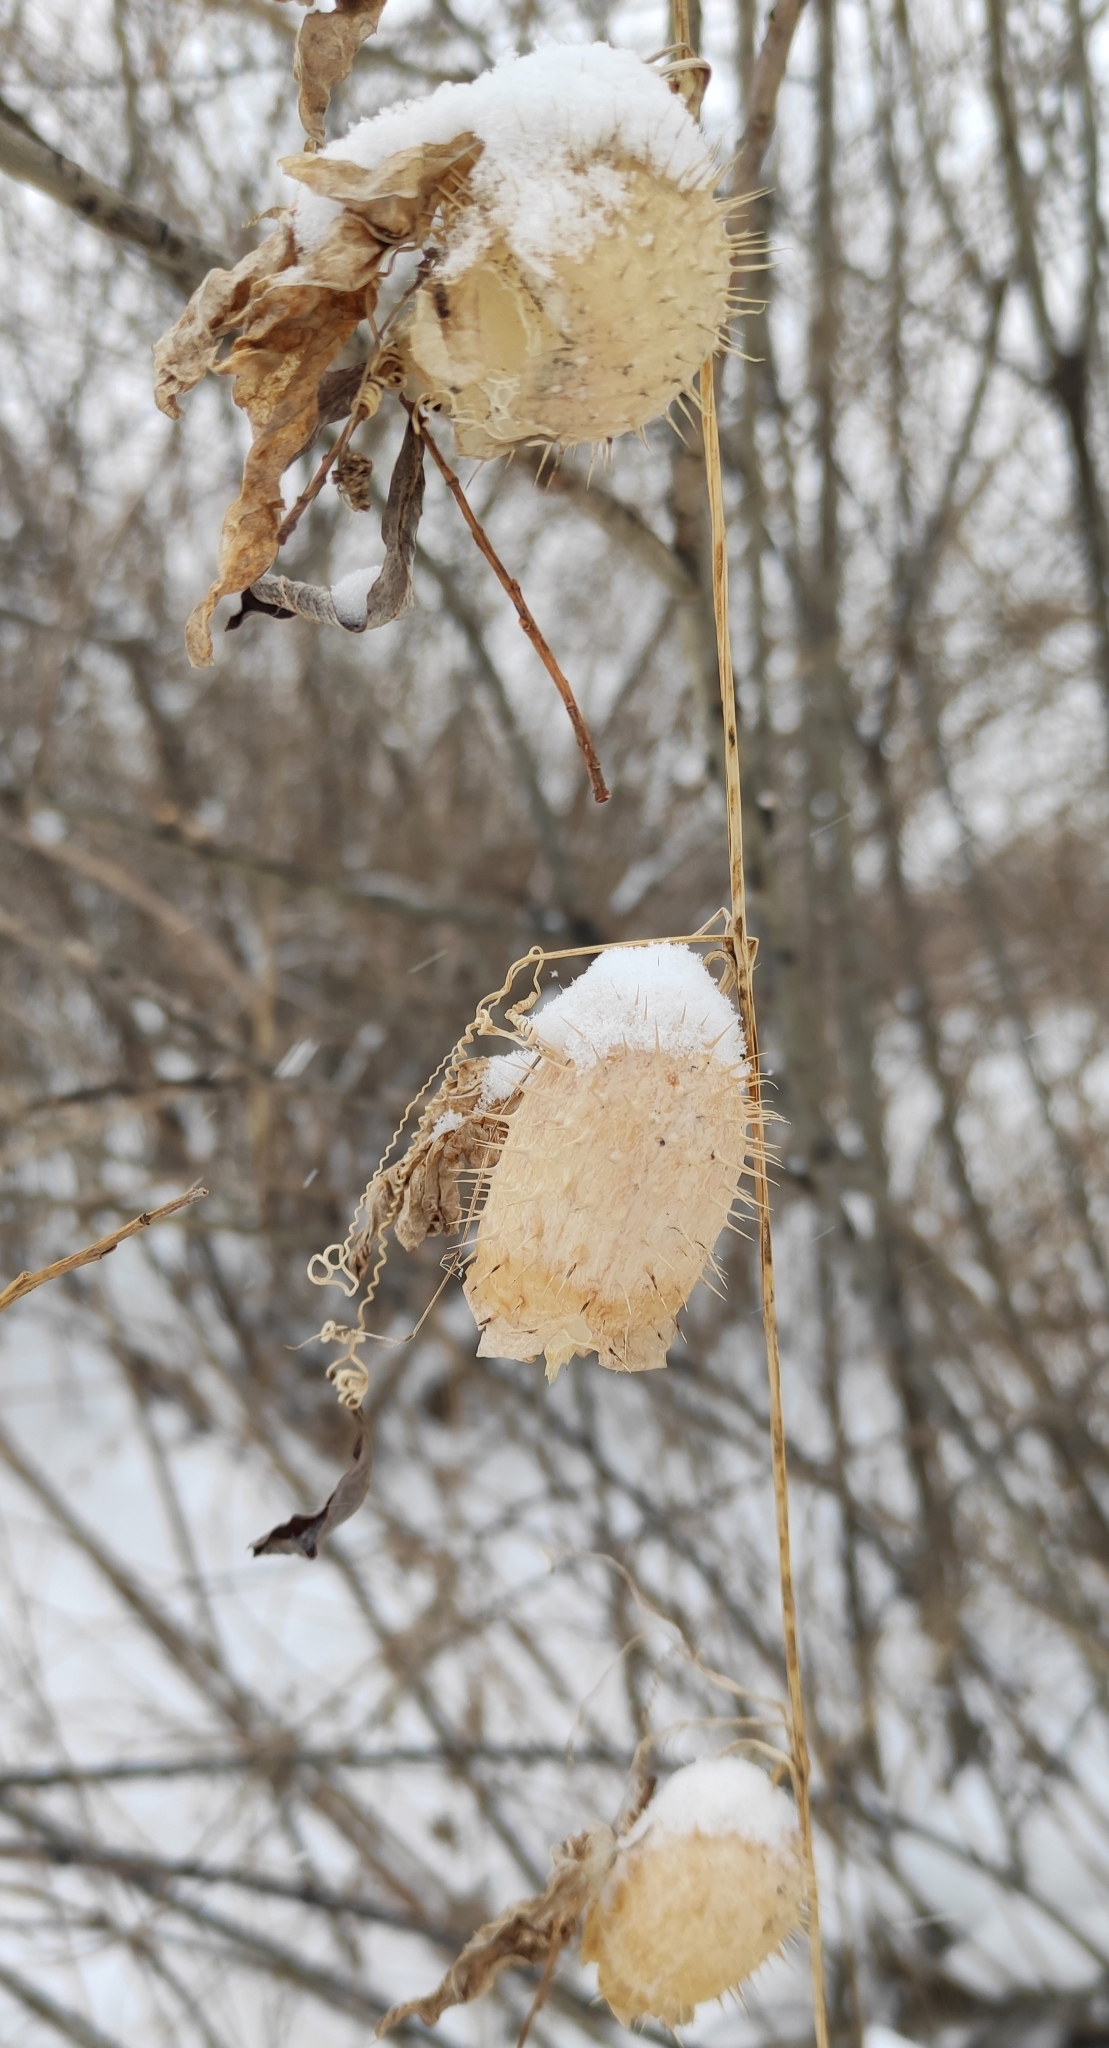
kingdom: Plantae
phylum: Tracheophyta
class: Magnoliopsida
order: Cucurbitales
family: Cucurbitaceae
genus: Echinocystis
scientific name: Echinocystis lobata
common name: Wild cucumber
